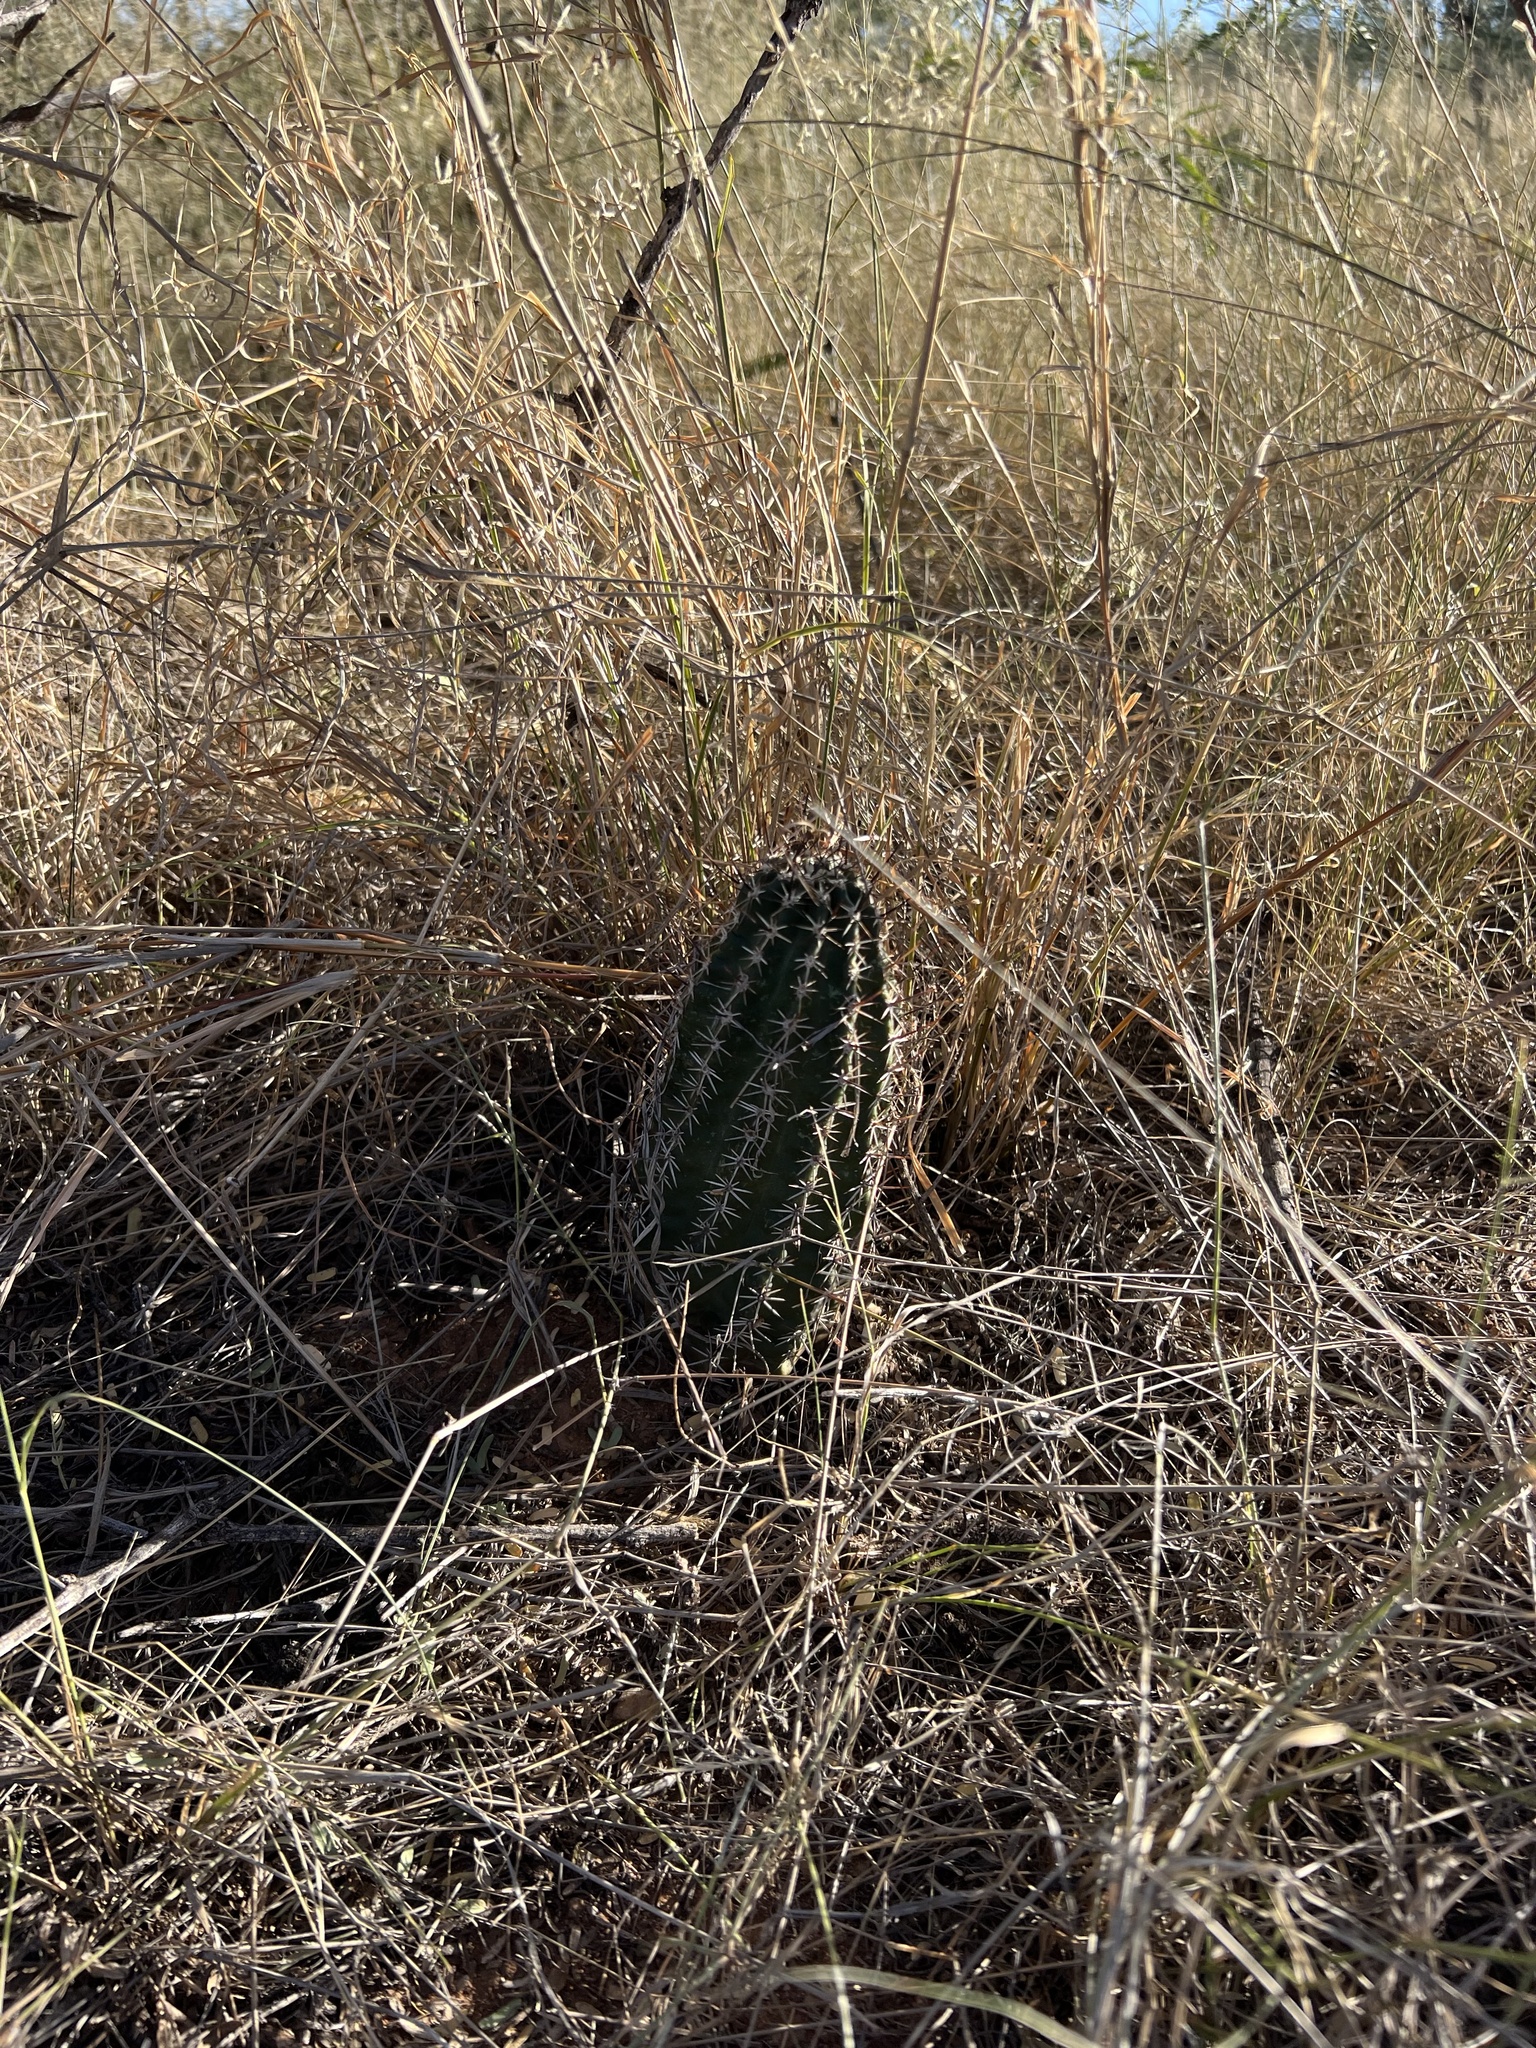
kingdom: Plantae
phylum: Tracheophyta
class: Magnoliopsida
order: Caryophyllales
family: Cactaceae
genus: Echinocereus
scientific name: Echinocereus fendleri
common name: Fendler's hedgehog cactus
